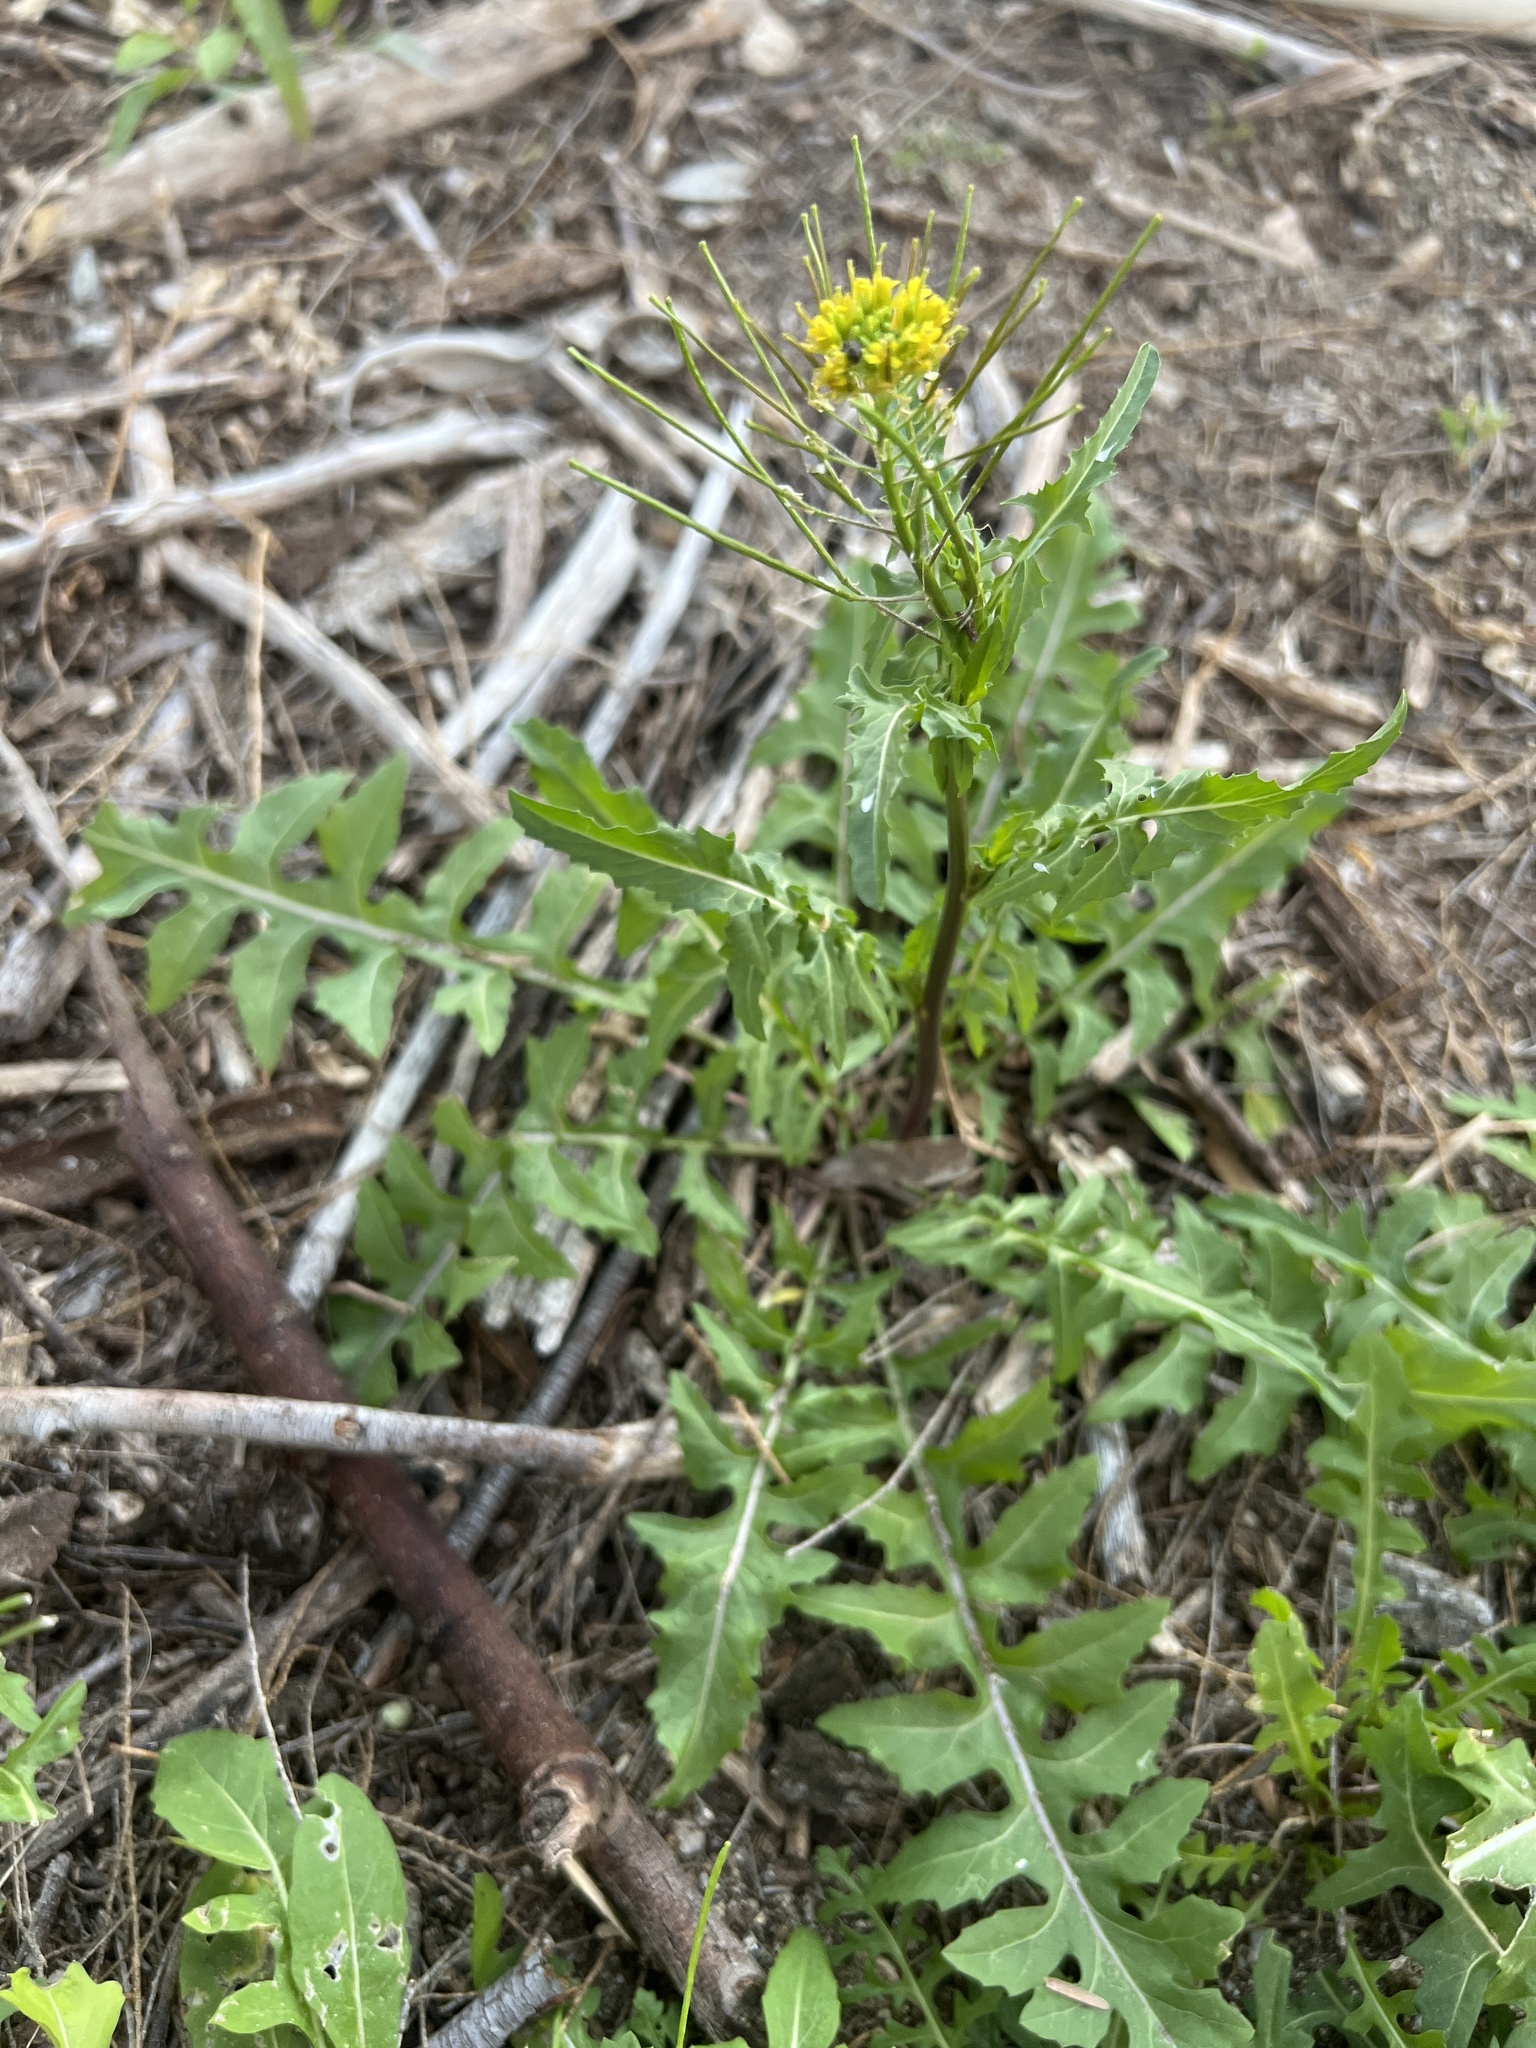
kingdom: Plantae
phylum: Tracheophyta
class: Magnoliopsida
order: Brassicales
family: Brassicaceae
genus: Sisymbrium
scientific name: Sisymbrium irio
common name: London rocket
